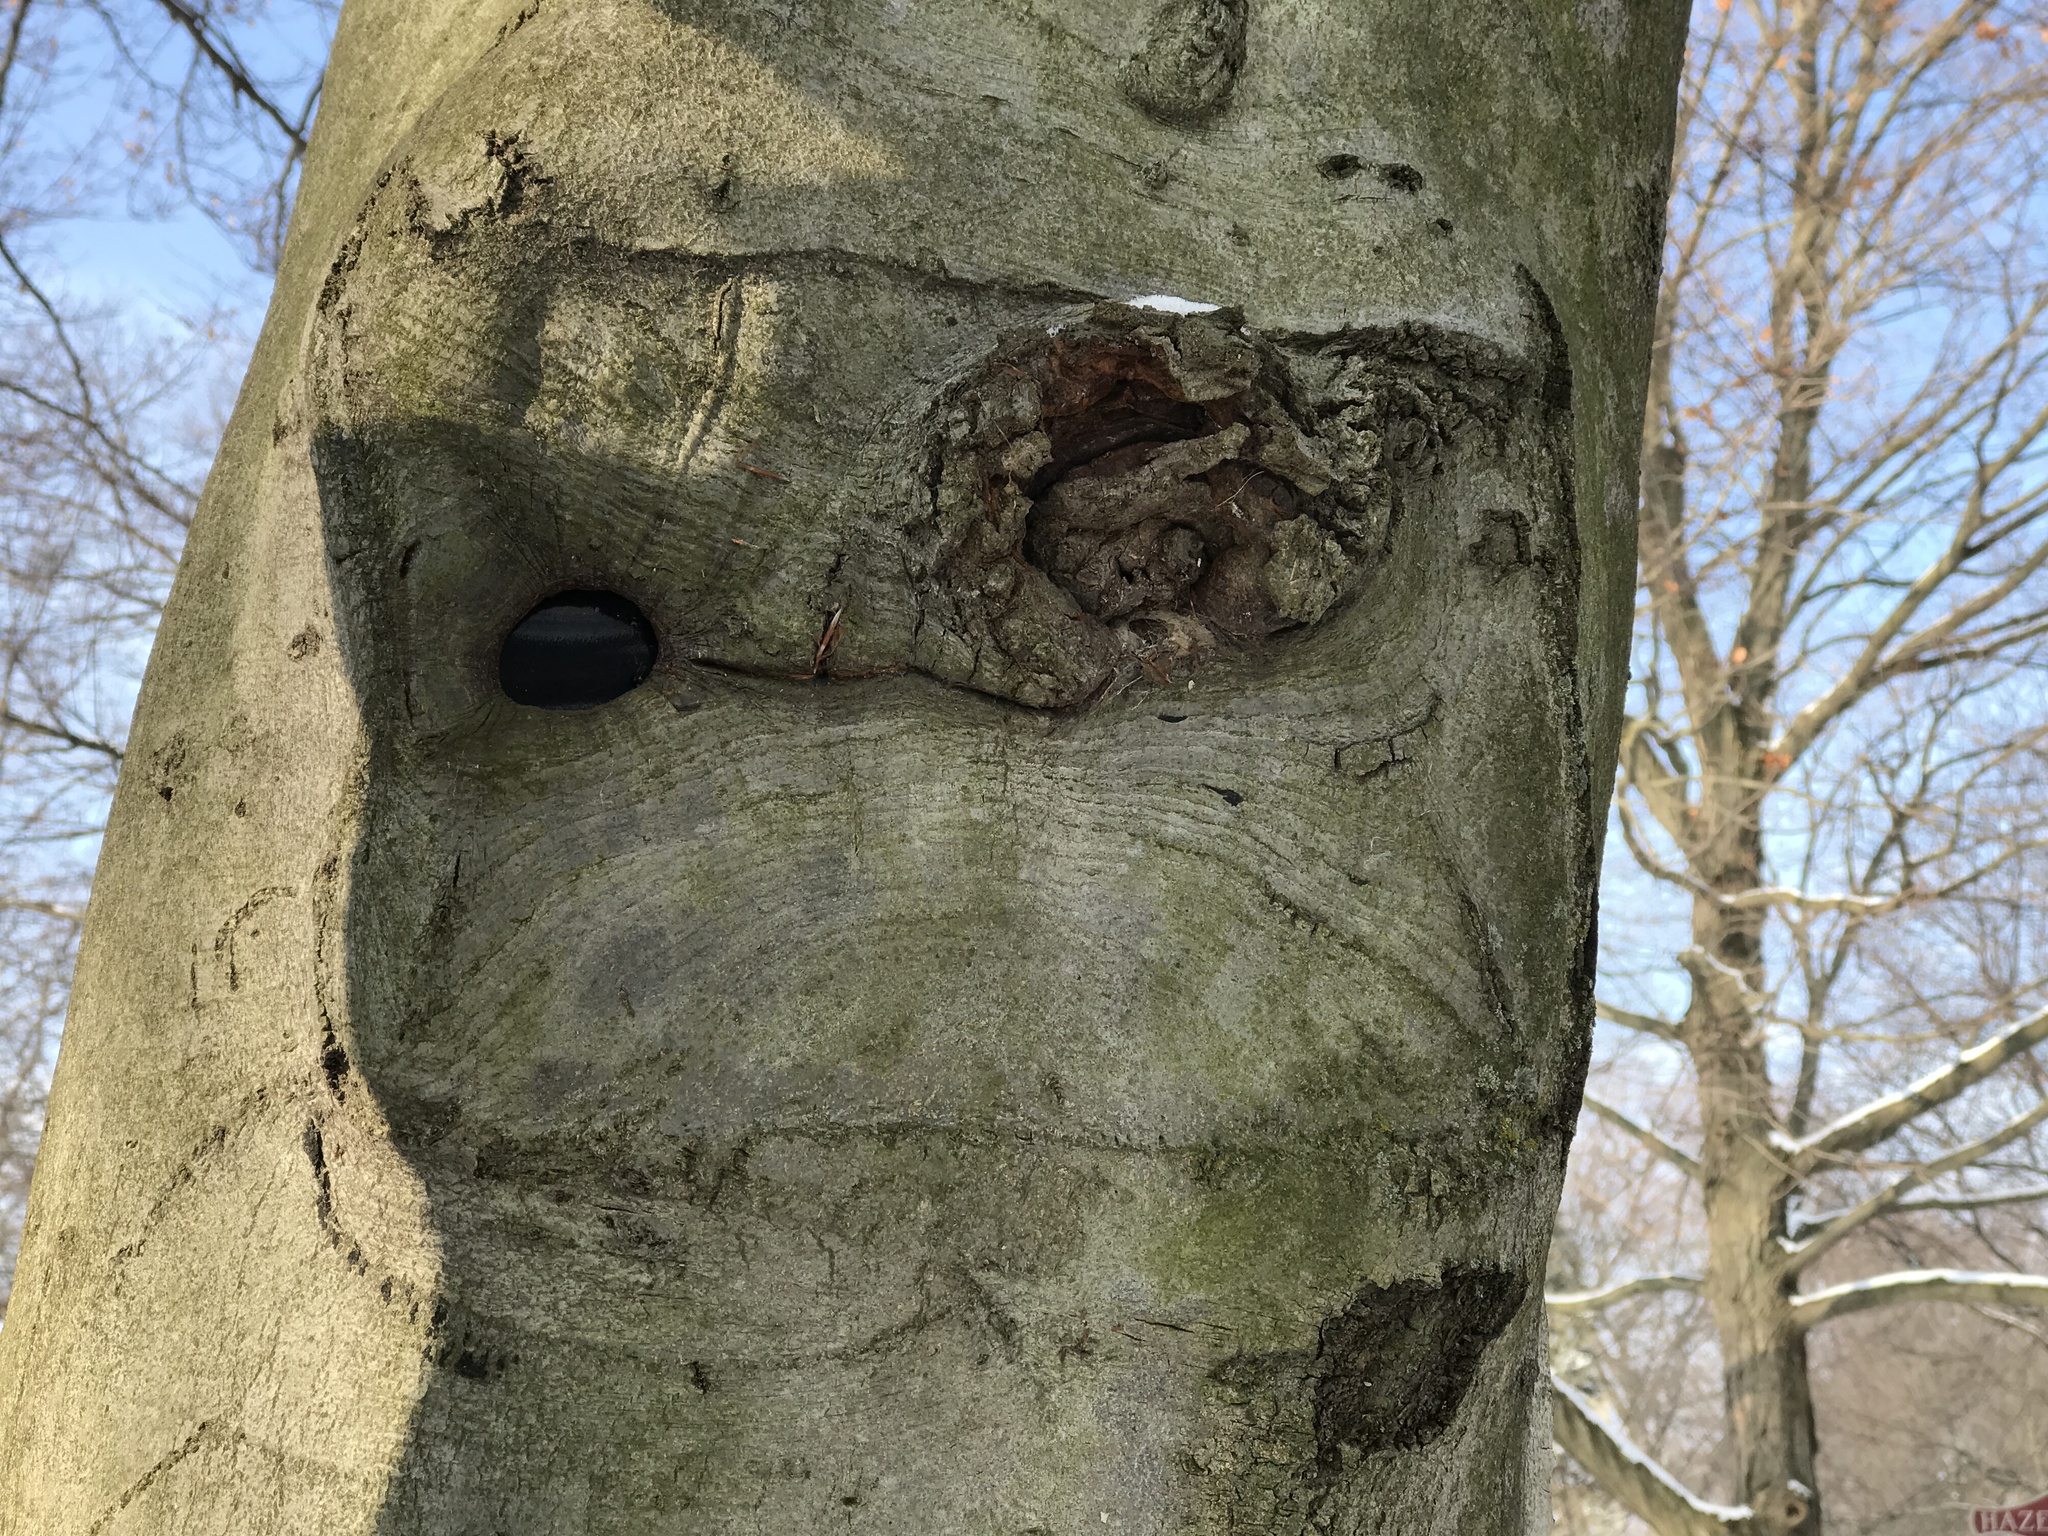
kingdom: Plantae
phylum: Tracheophyta
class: Magnoliopsida
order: Fagales
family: Fagaceae
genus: Fagus
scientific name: Fagus grandifolia
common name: American beech
